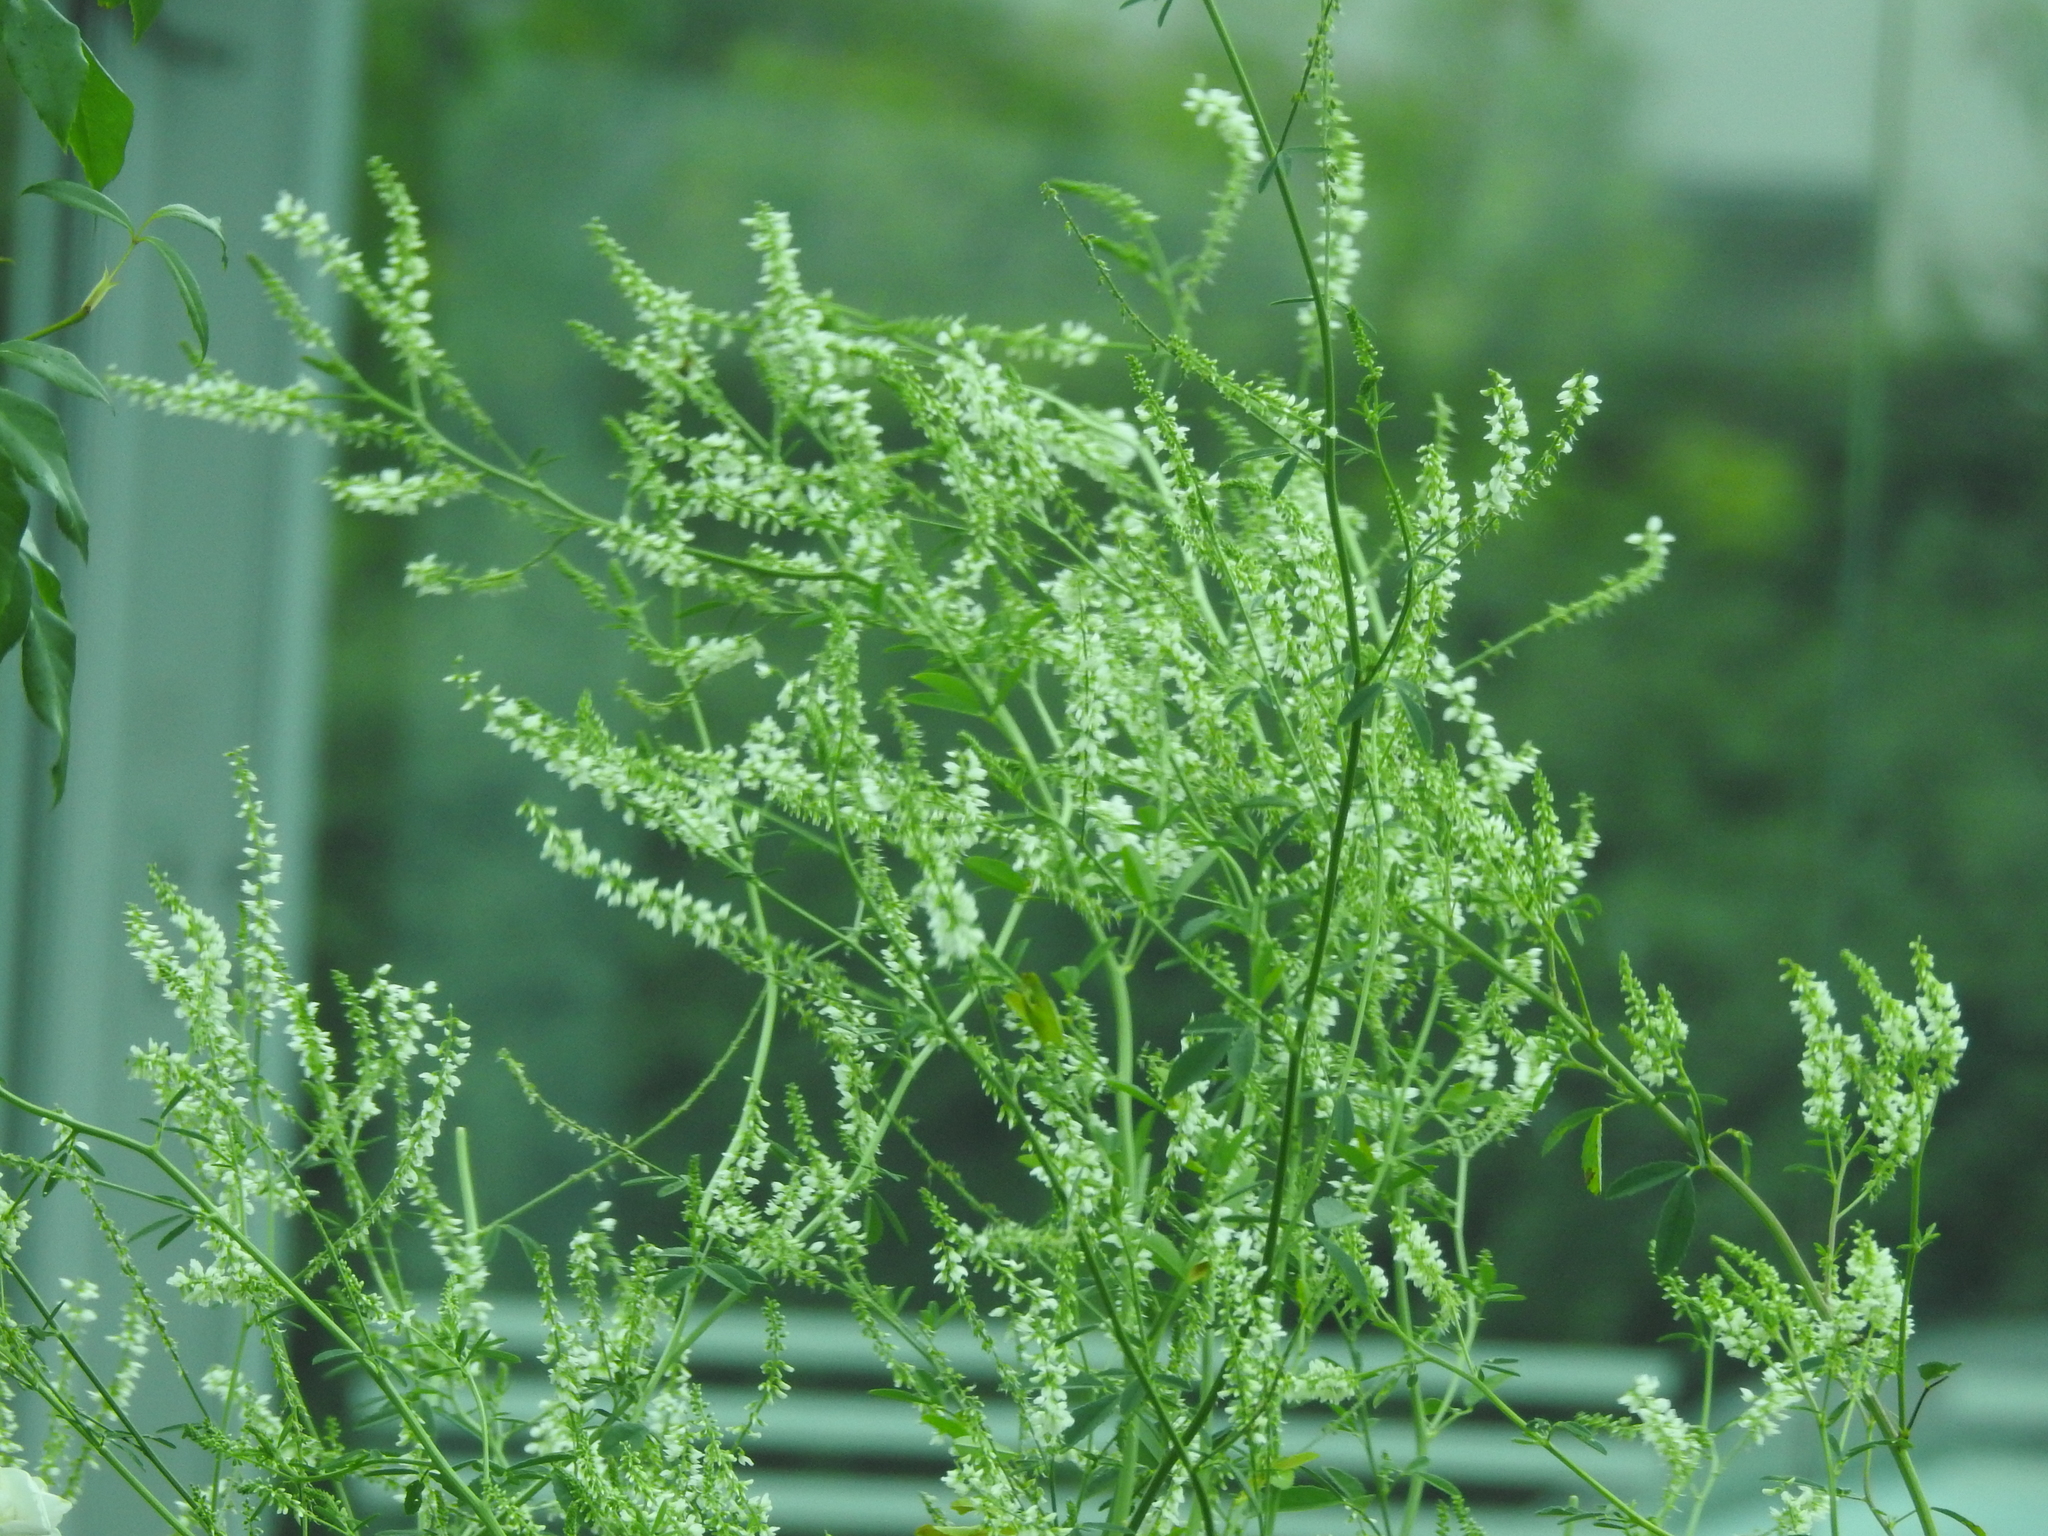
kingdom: Plantae
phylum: Tracheophyta
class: Magnoliopsida
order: Fabales
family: Fabaceae
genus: Melilotus
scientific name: Melilotus albus
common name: White melilot
